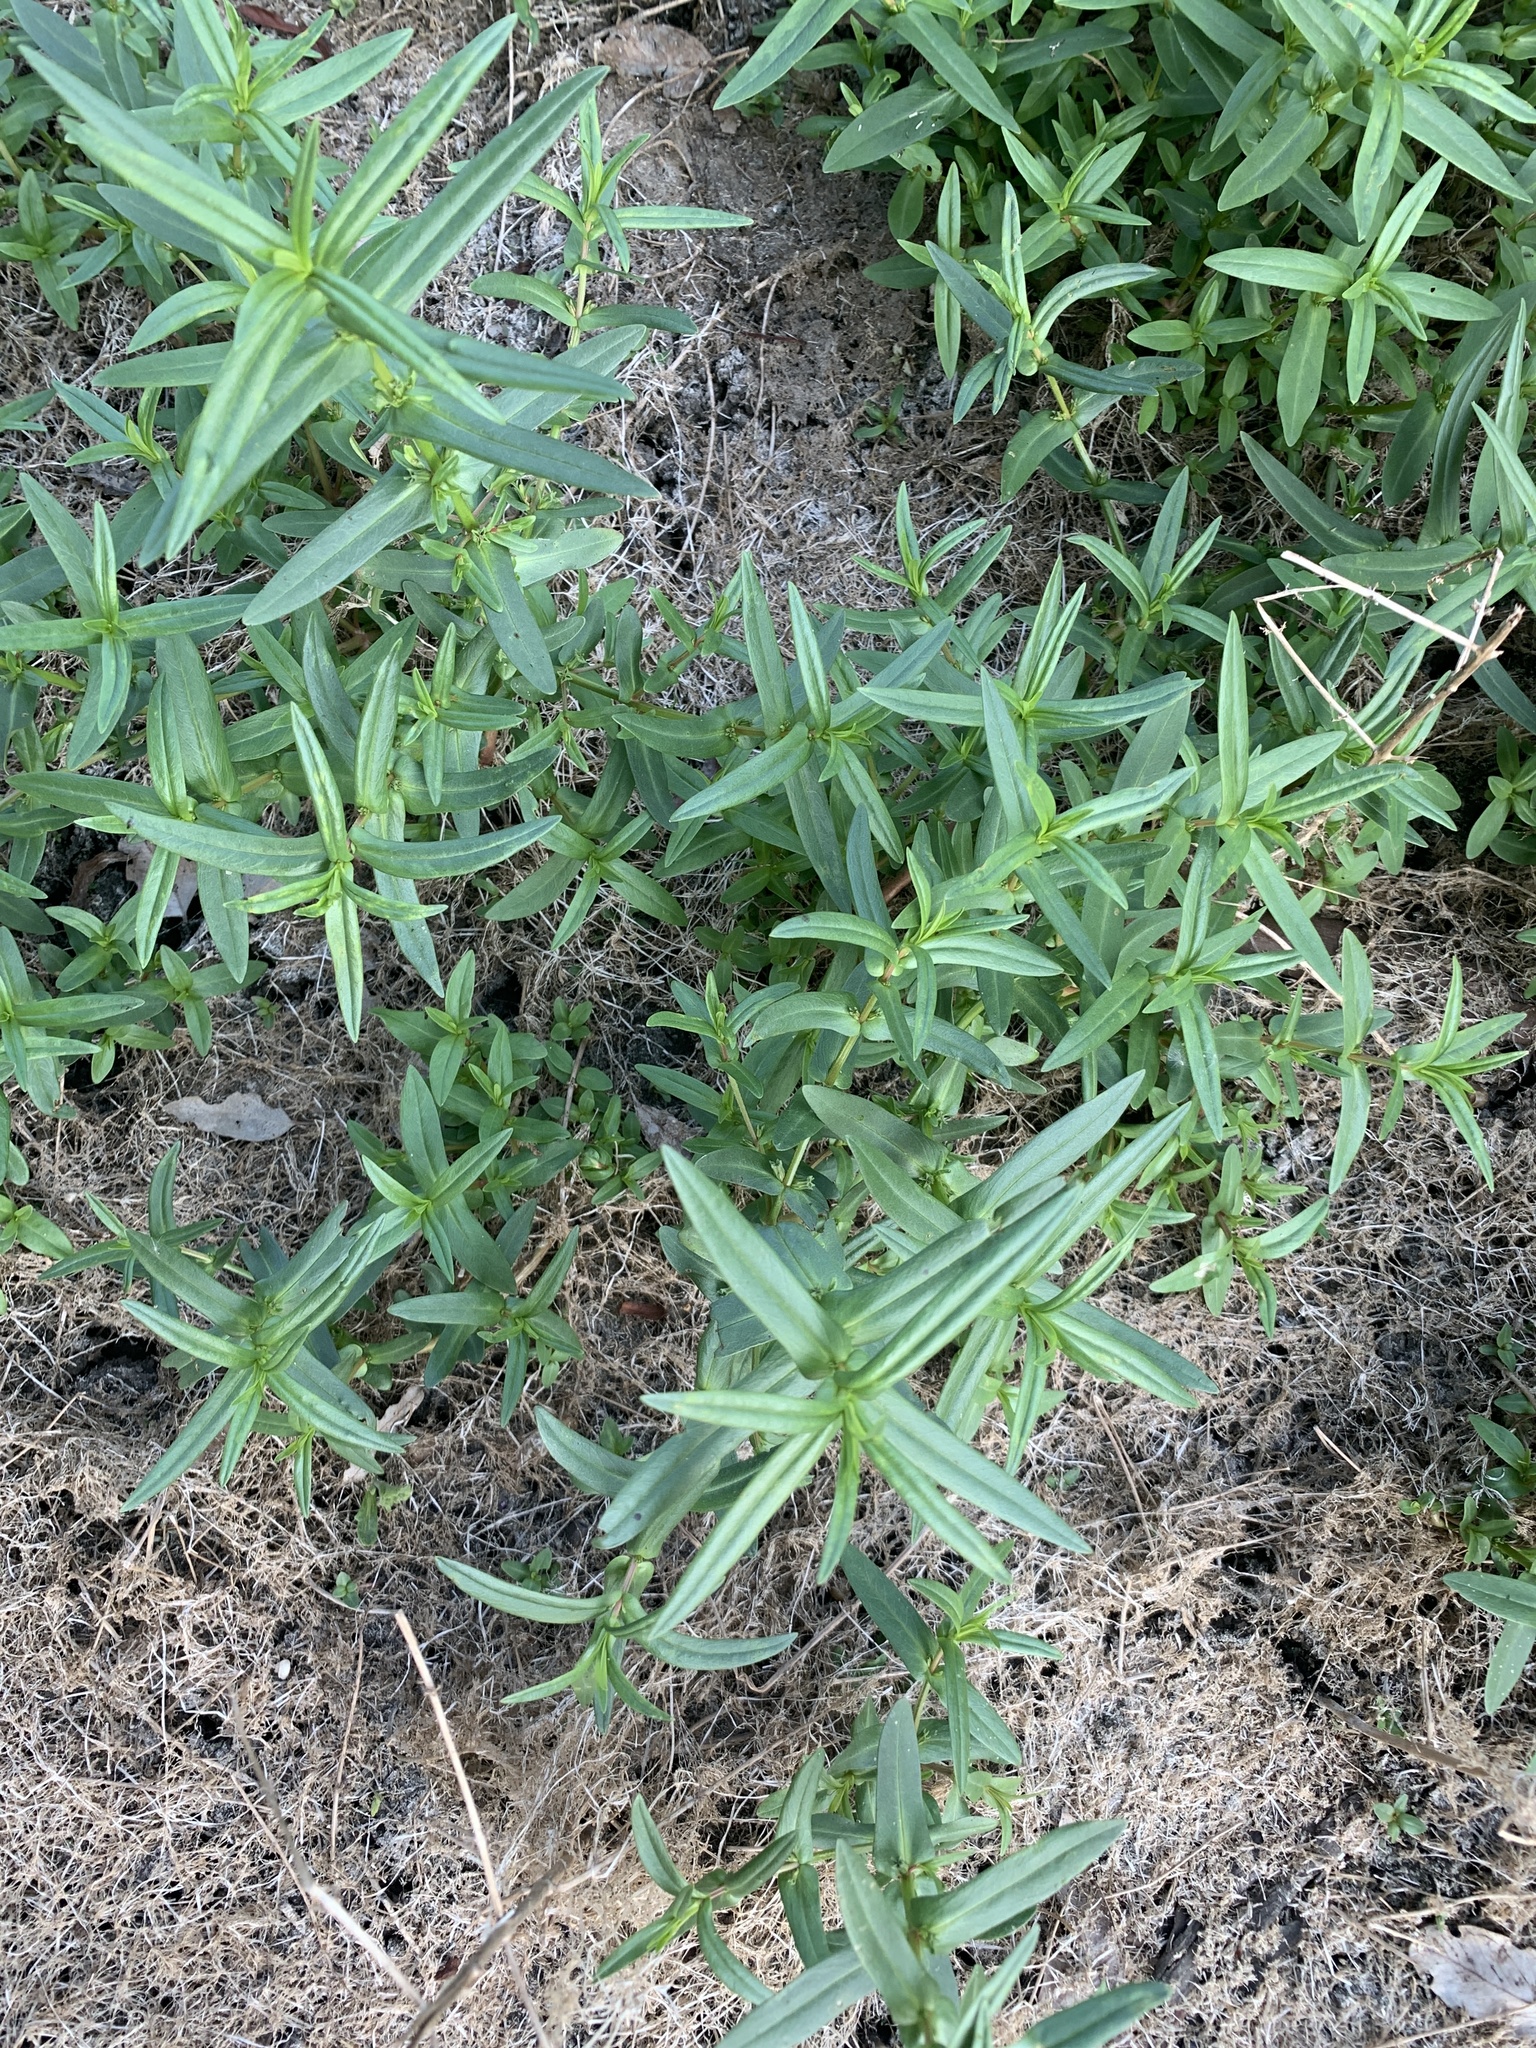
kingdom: Plantae
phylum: Tracheophyta
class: Magnoliopsida
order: Myrtales
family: Lythraceae
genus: Ammannia
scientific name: Ammannia coccinea
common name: Valley redstem
